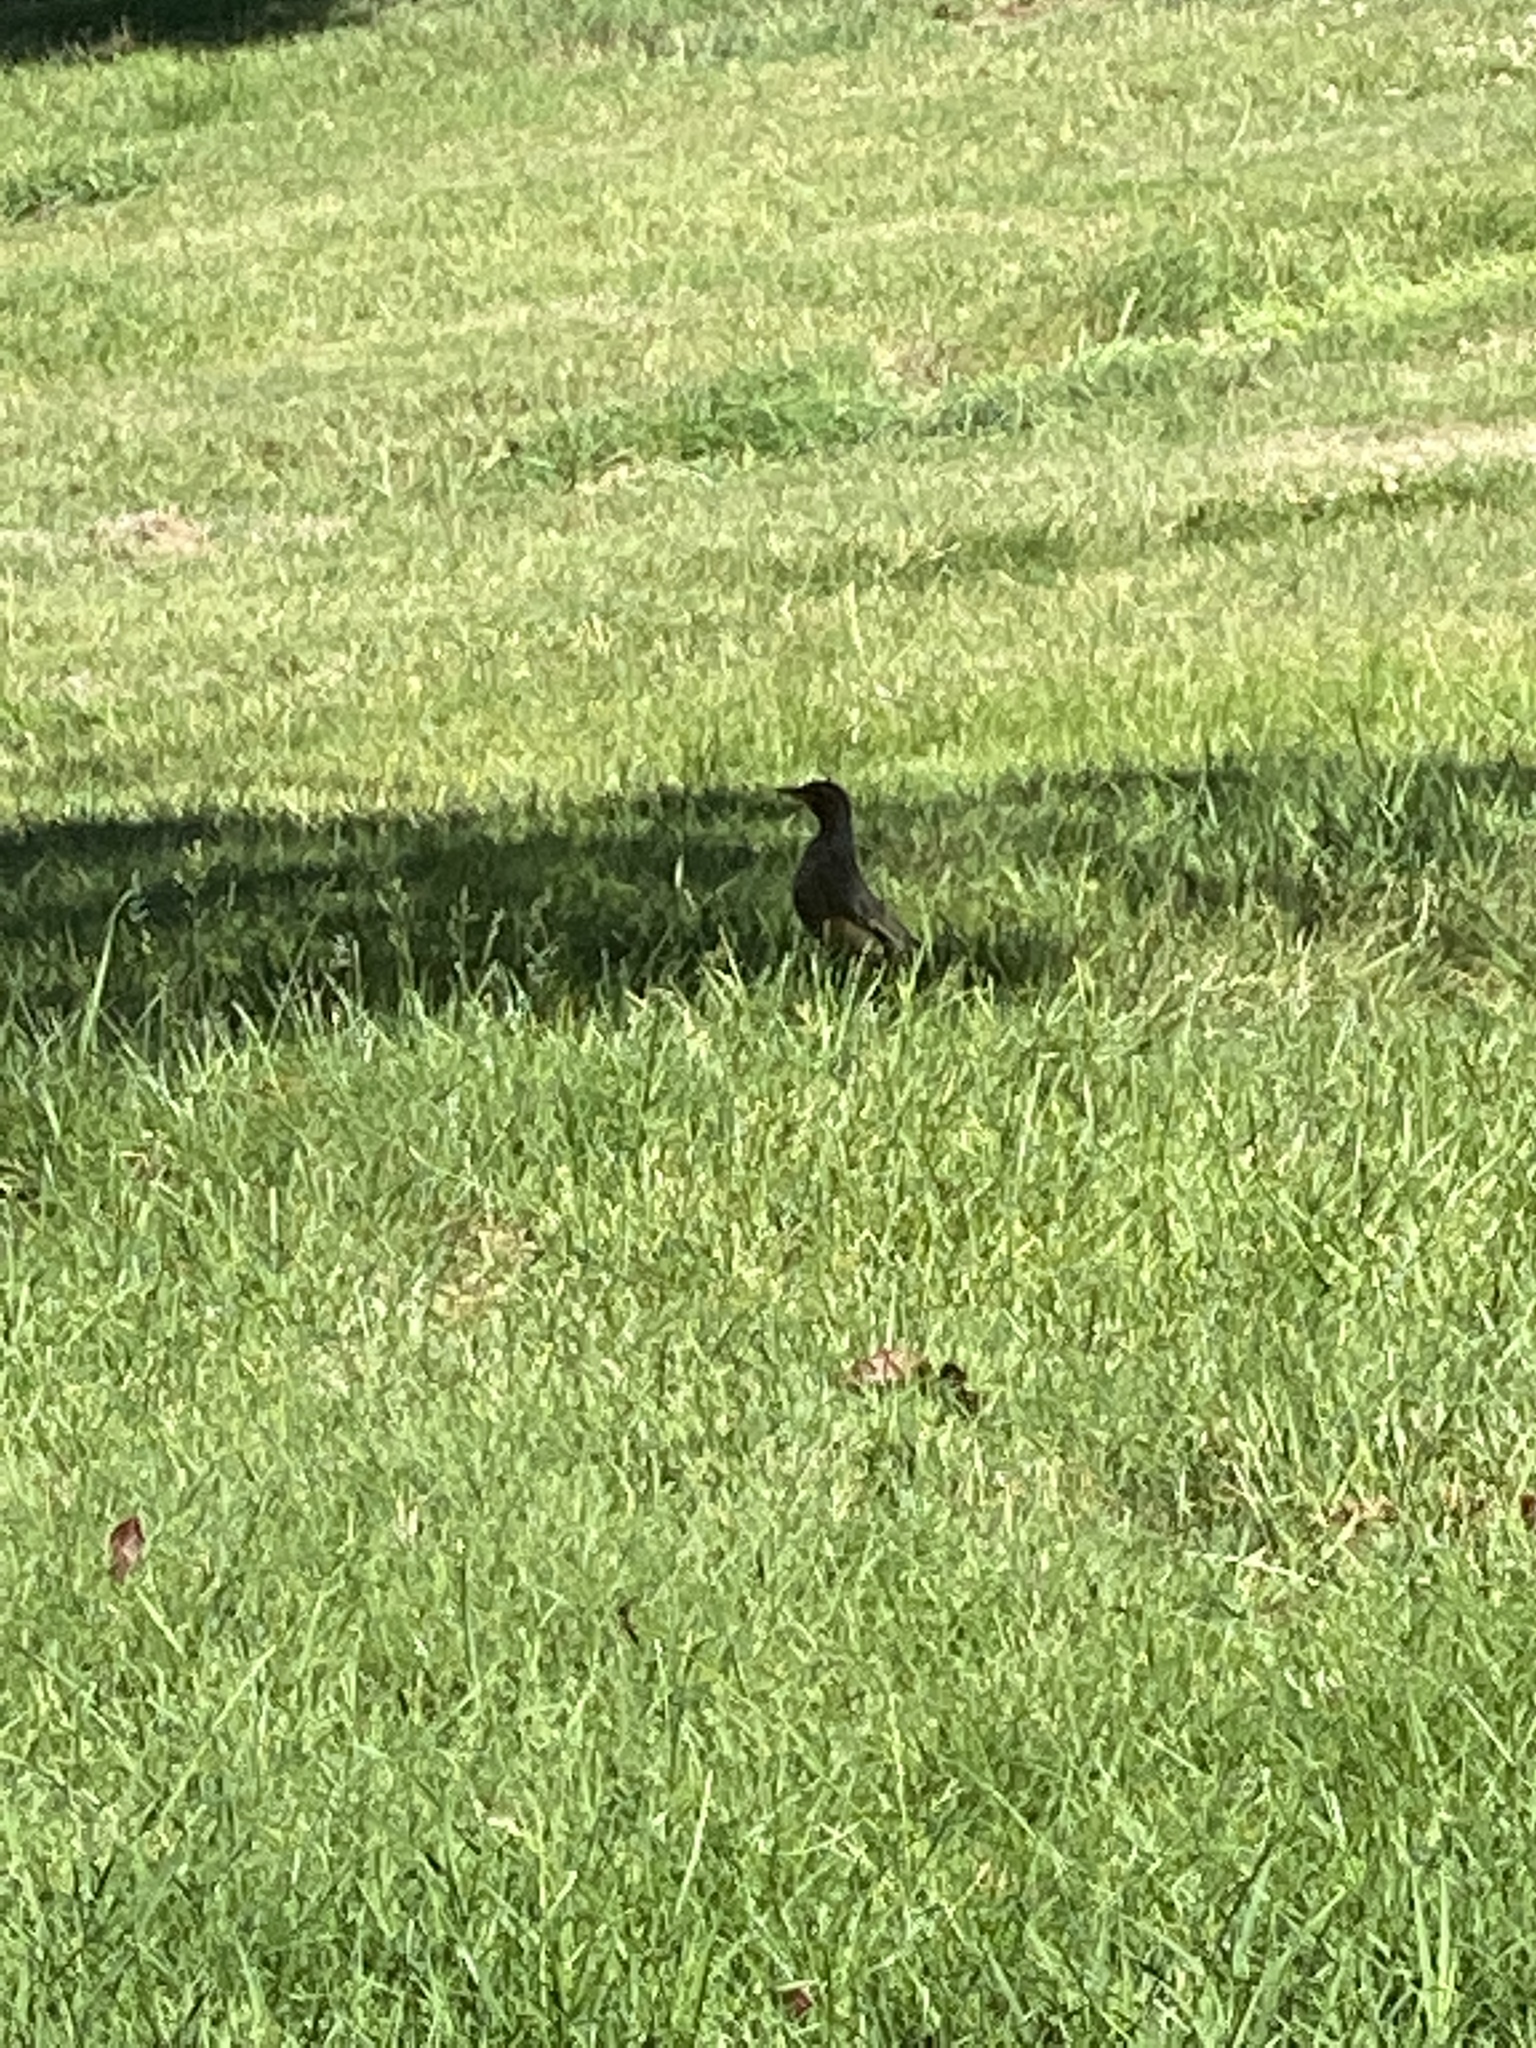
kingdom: Animalia
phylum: Chordata
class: Aves
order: Passeriformes
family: Turdidae
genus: Turdus
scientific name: Turdus migratorius
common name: American robin
